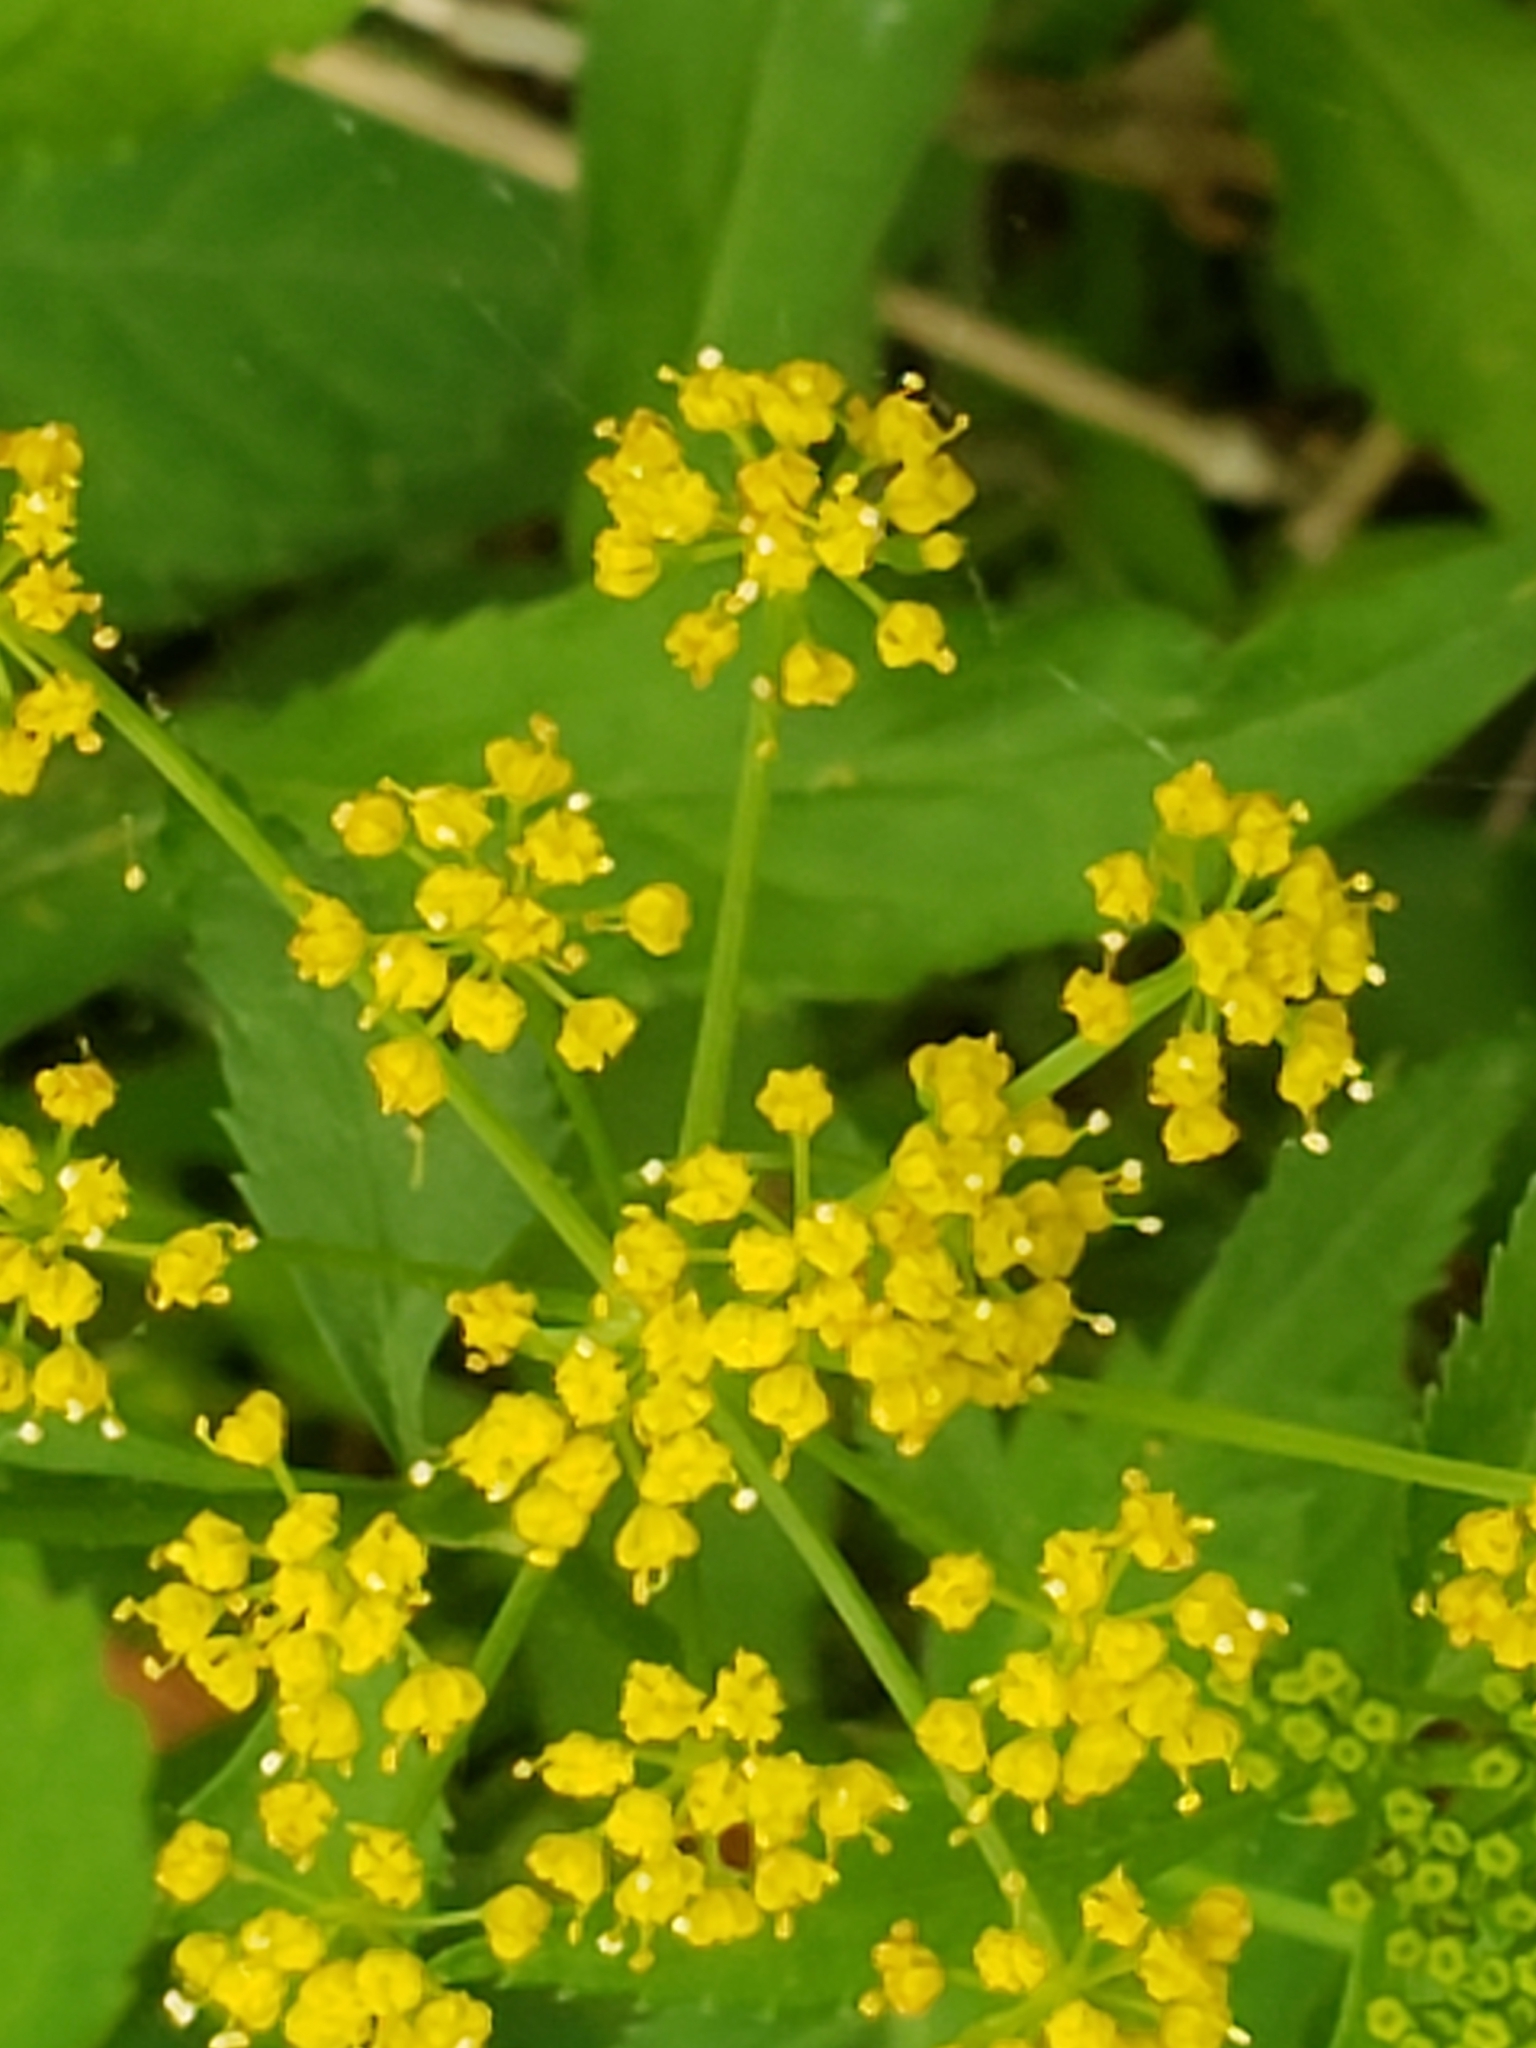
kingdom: Plantae
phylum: Tracheophyta
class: Magnoliopsida
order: Apiales
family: Apiaceae
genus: Zizia
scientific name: Zizia aurea
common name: Golden alexanders
